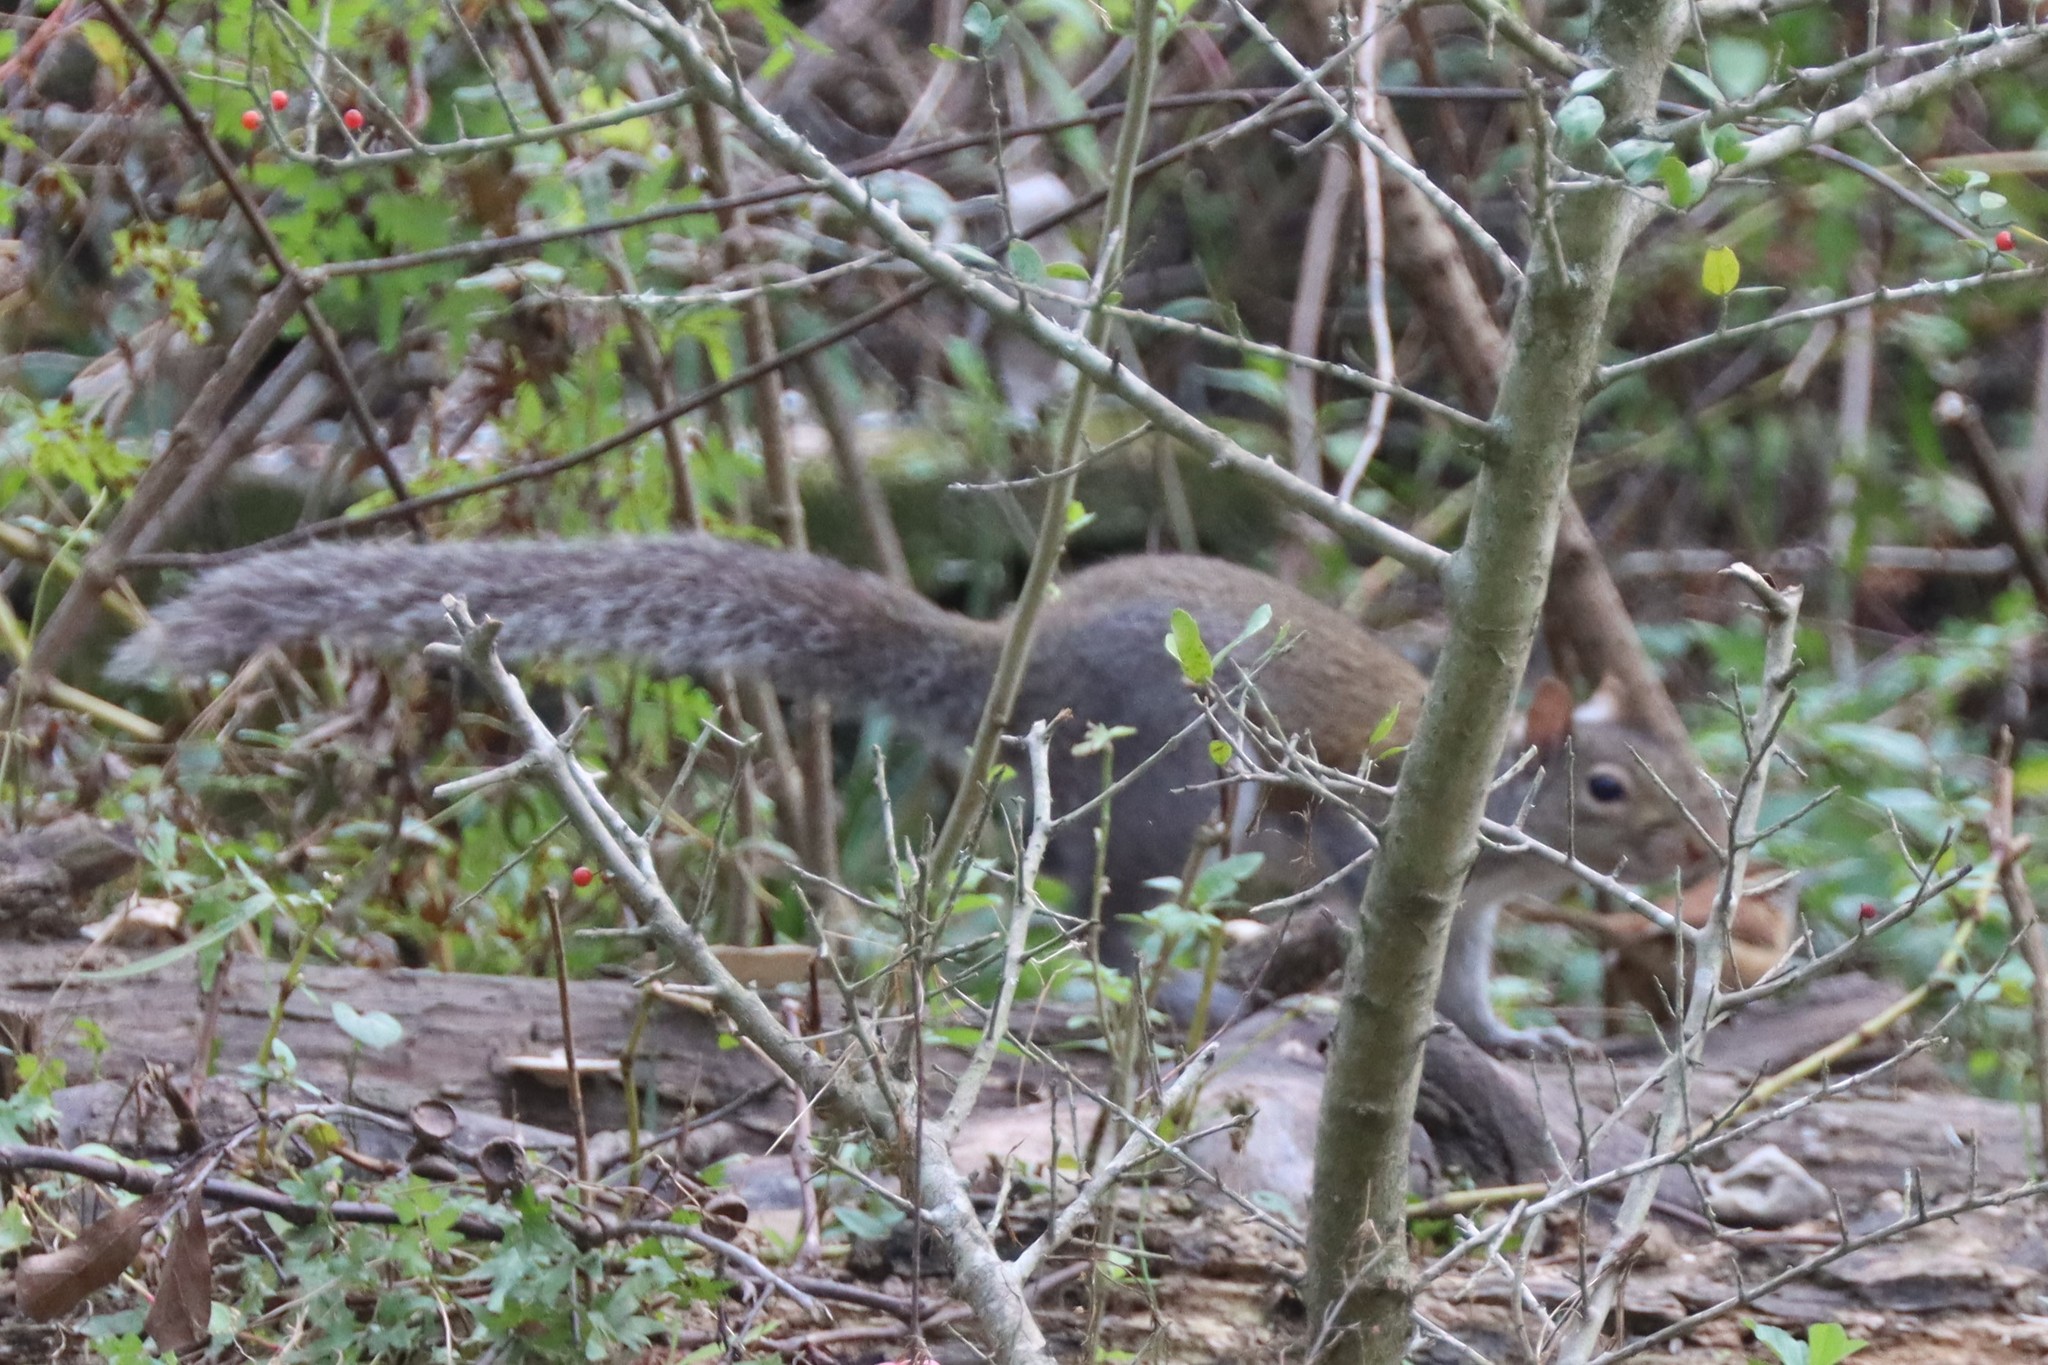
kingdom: Animalia
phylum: Chordata
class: Mammalia
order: Rodentia
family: Sciuridae
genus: Sciurus
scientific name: Sciurus carolinensis
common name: Eastern gray squirrel
